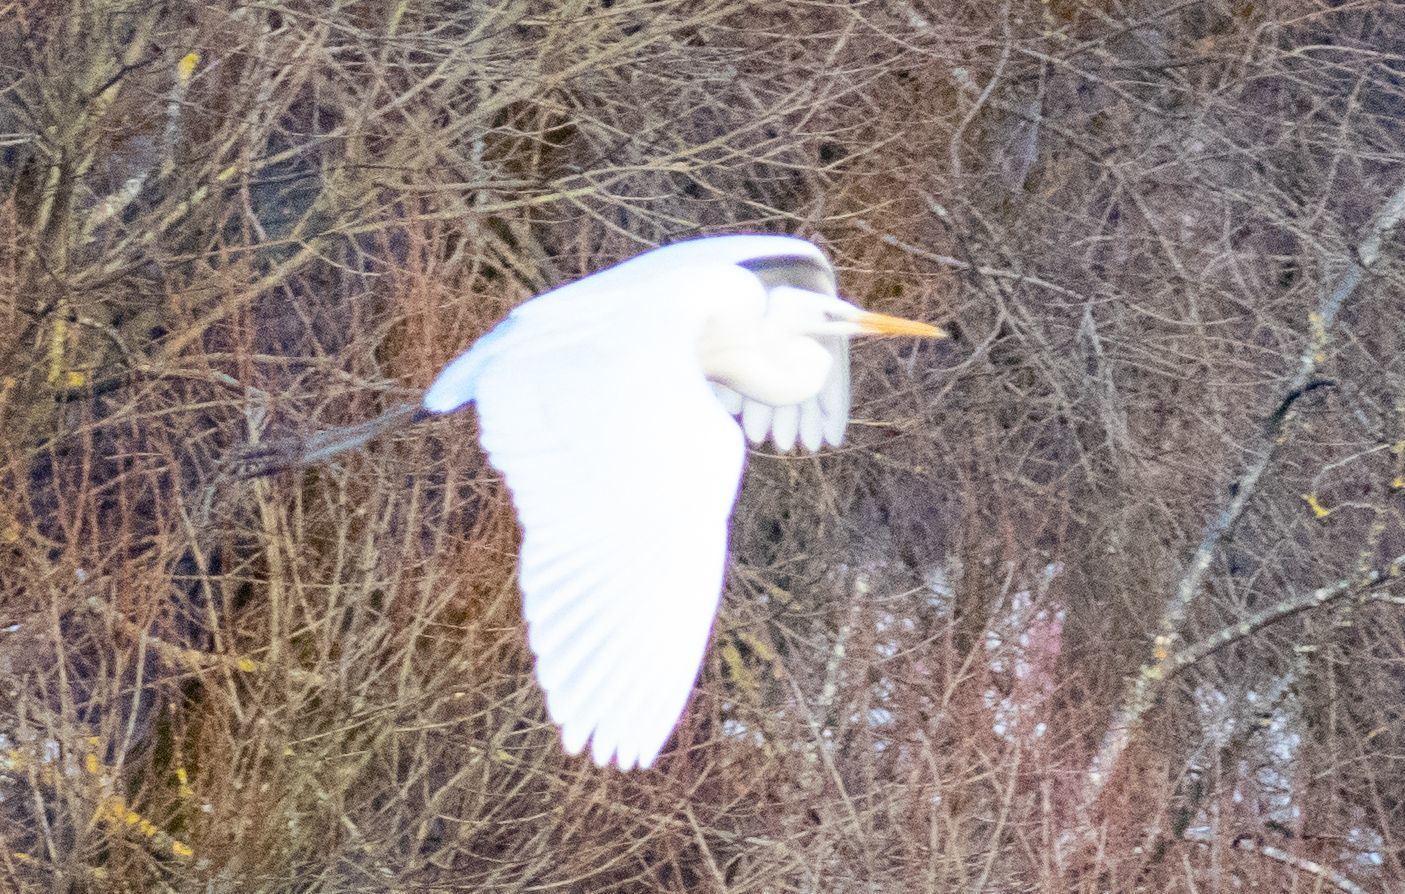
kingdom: Animalia
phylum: Chordata
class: Aves
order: Pelecaniformes
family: Ardeidae
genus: Ardea
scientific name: Ardea alba
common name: Great egret
